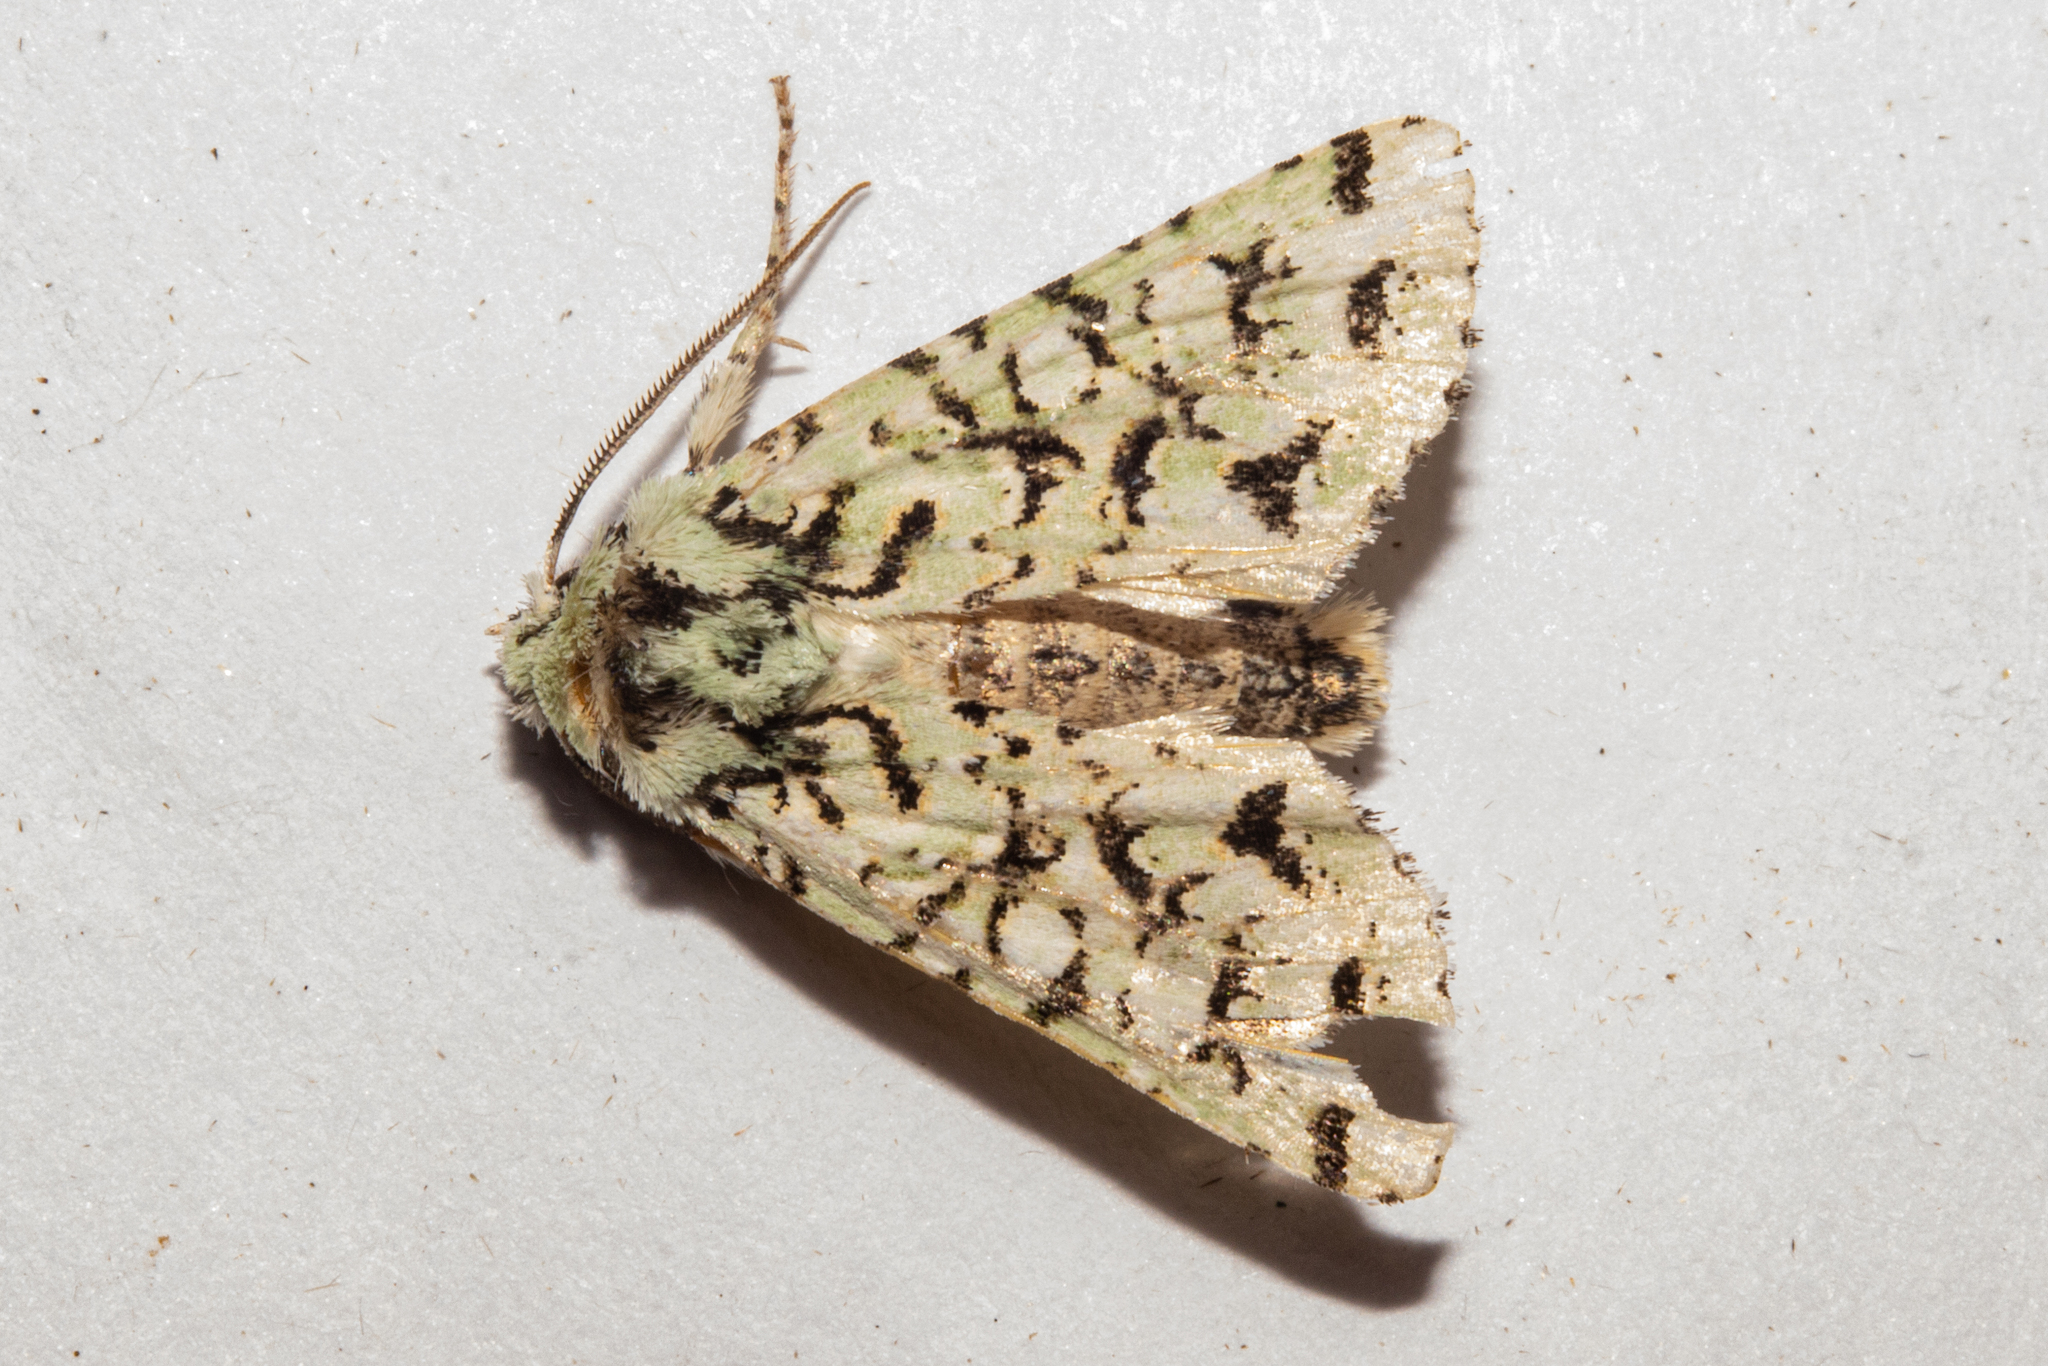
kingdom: Animalia
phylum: Arthropoda
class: Insecta
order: Lepidoptera
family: Noctuidae
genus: Meterana
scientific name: Meterana
